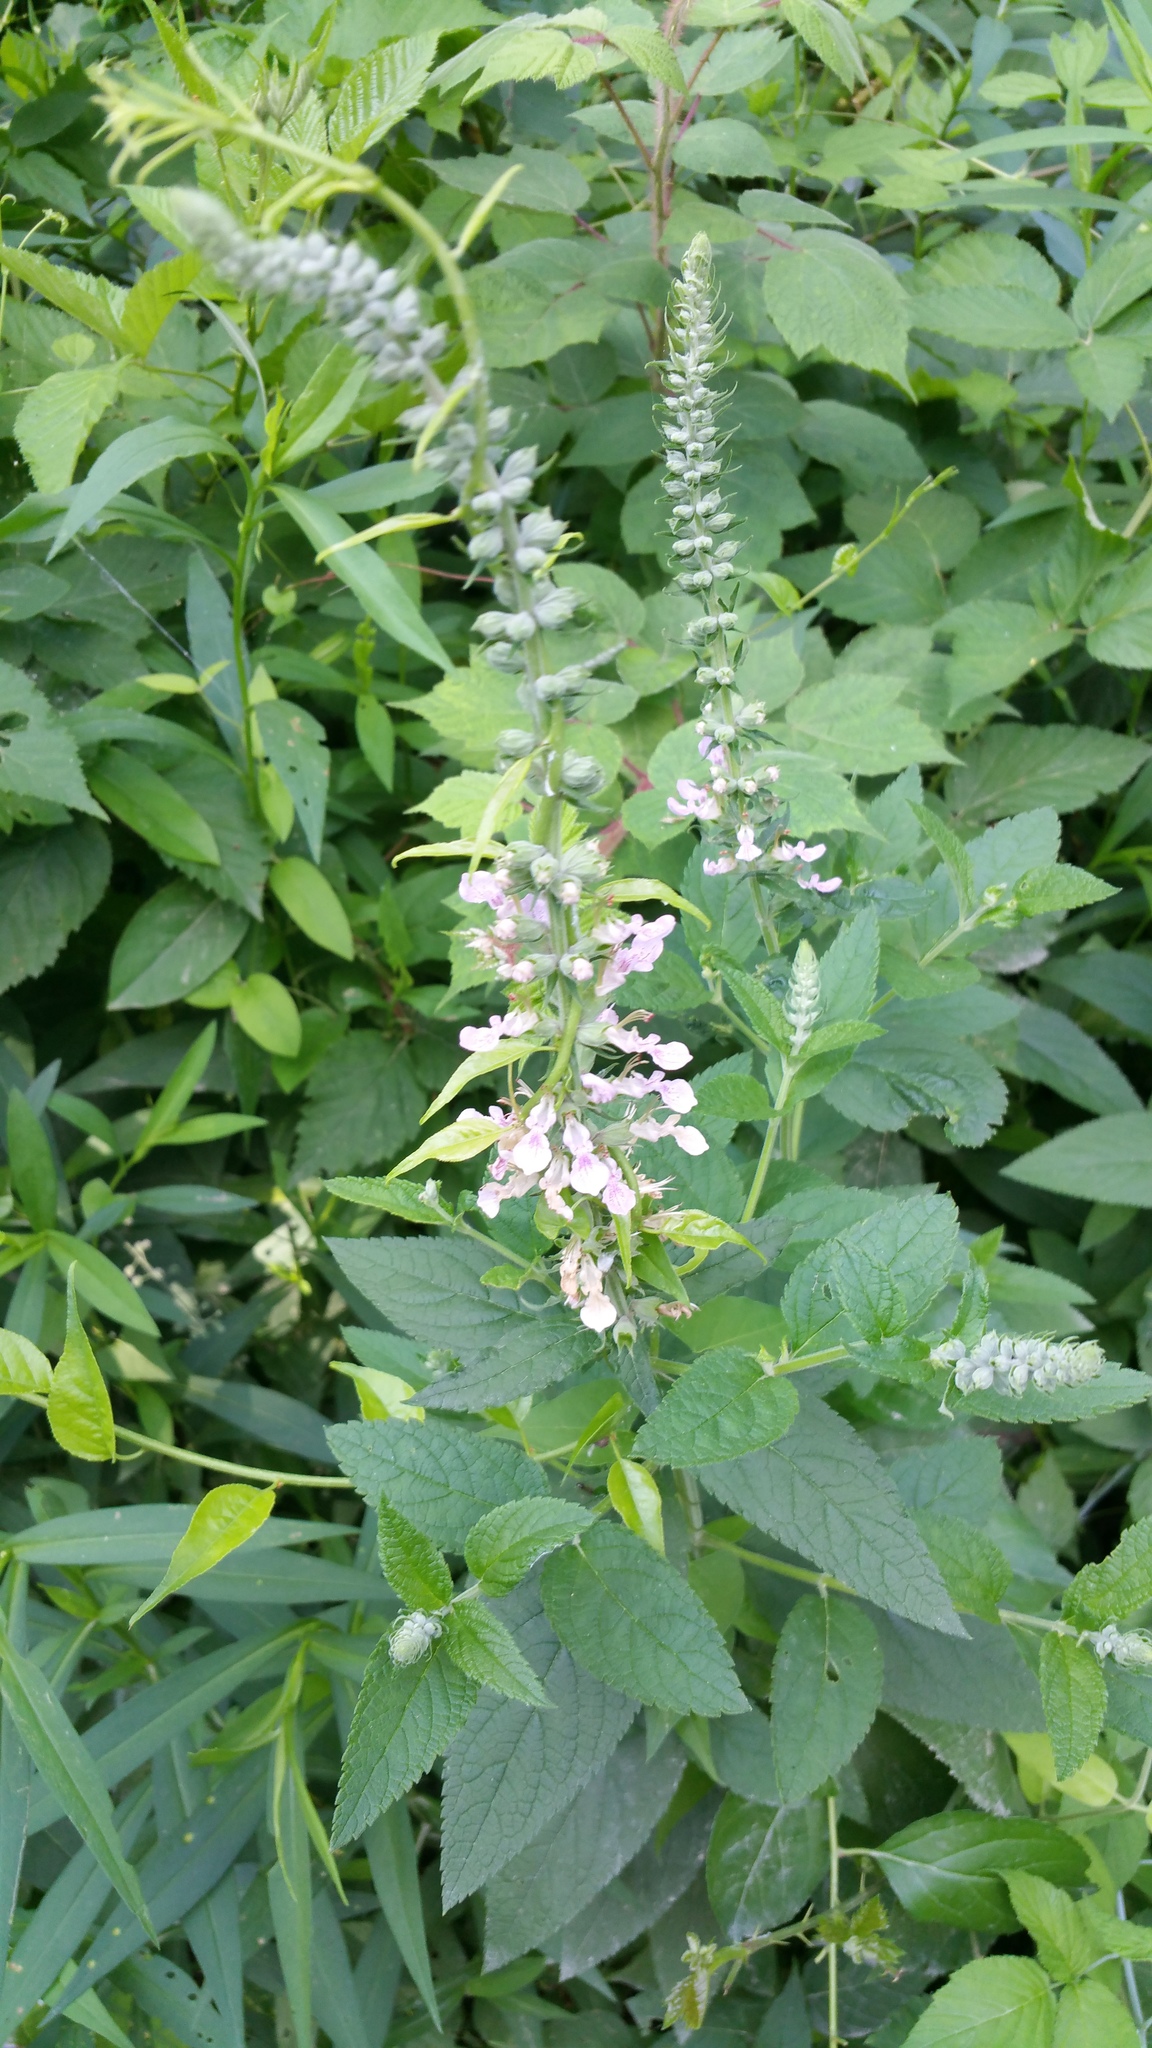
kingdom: Plantae
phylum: Tracheophyta
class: Magnoliopsida
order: Lamiales
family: Lamiaceae
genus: Teucrium
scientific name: Teucrium canadense
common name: American germander
